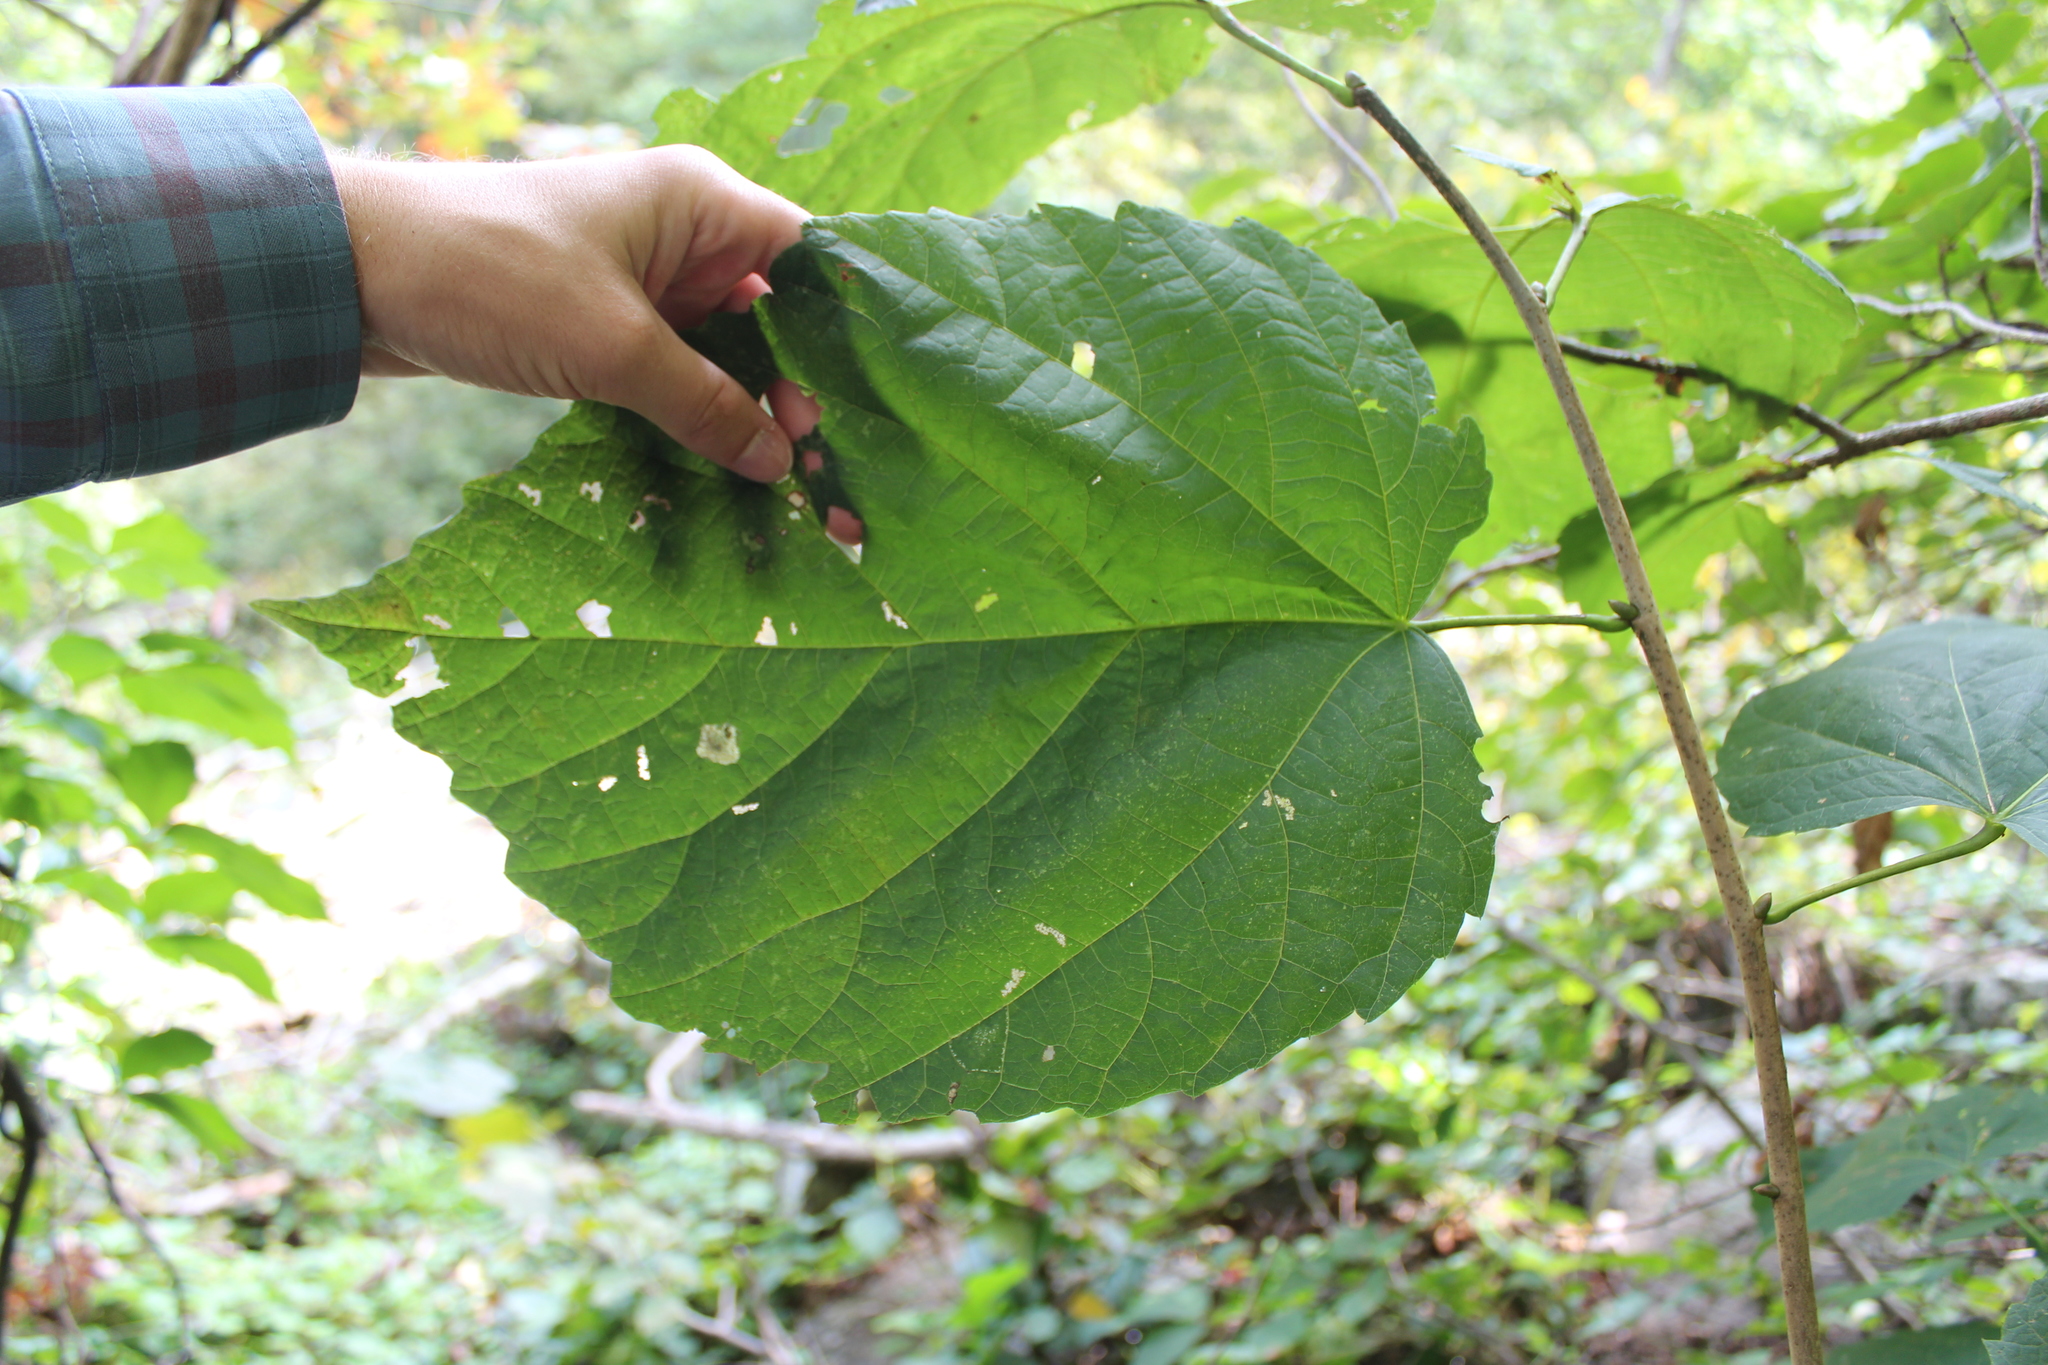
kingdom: Plantae
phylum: Tracheophyta
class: Magnoliopsida
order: Malvales
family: Malvaceae
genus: Tilia
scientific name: Tilia americana
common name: Basswood
